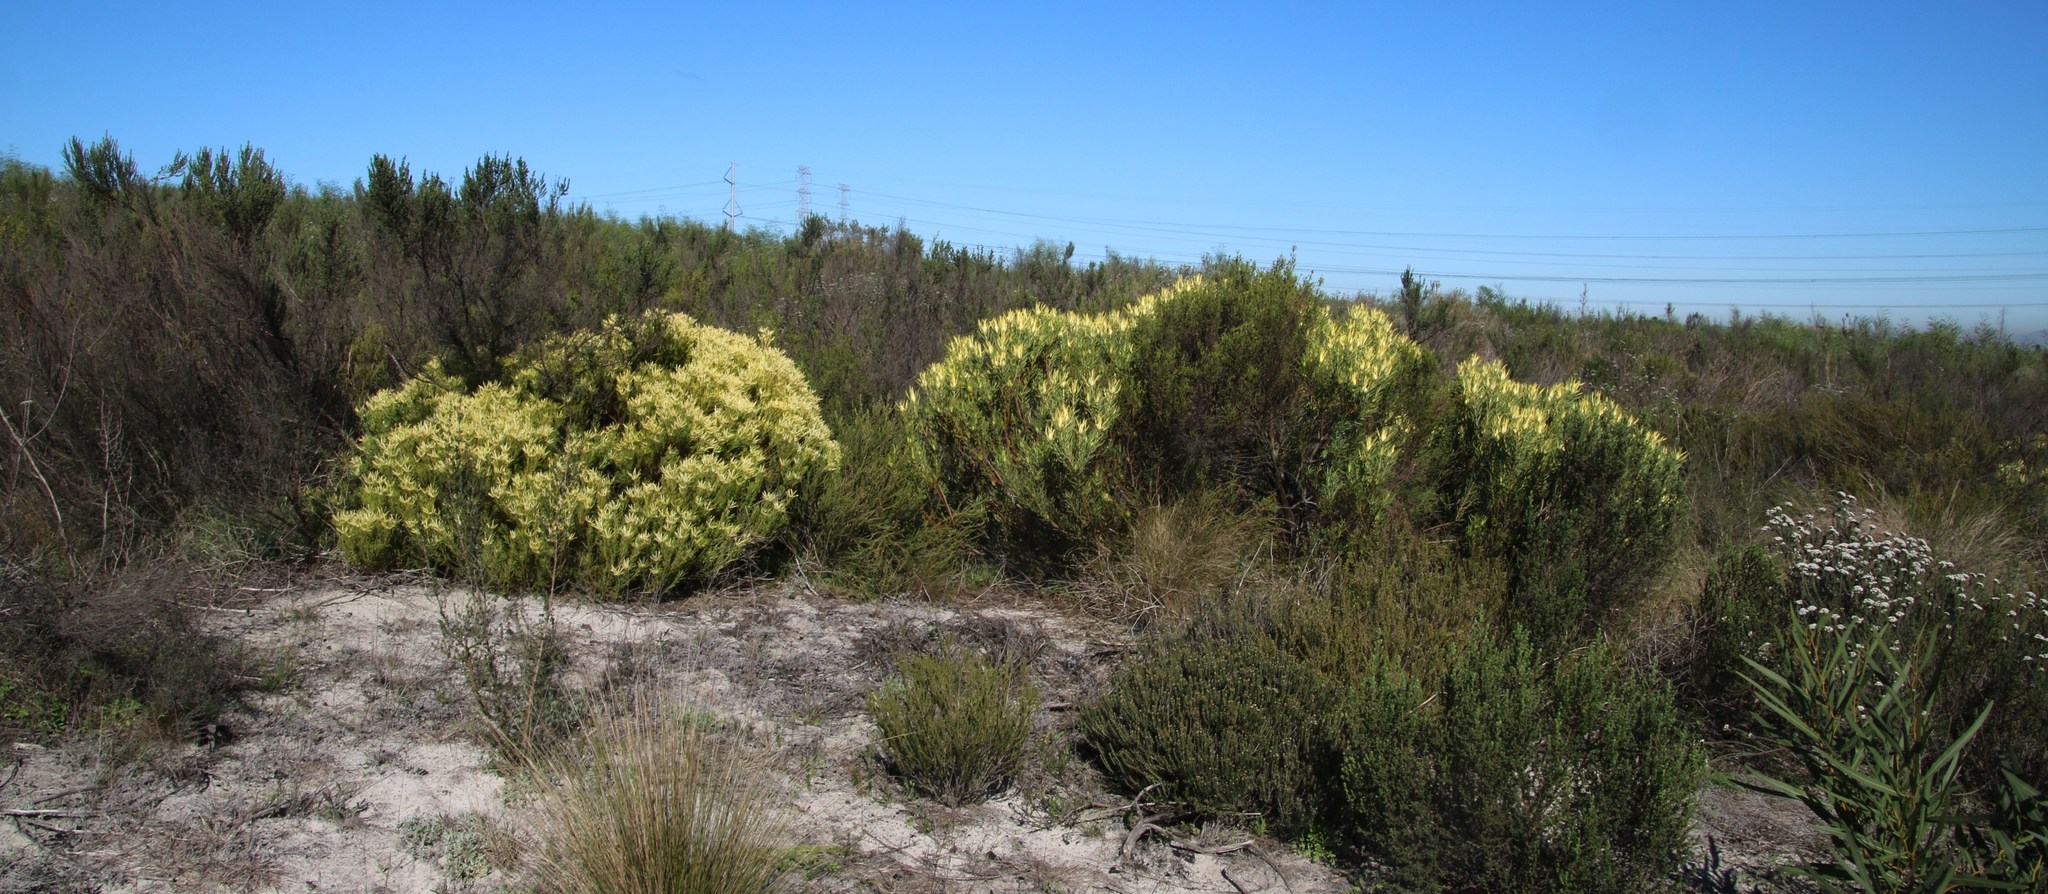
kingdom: Plantae
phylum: Tracheophyta
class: Magnoliopsida
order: Proteales
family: Proteaceae
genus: Leucadendron
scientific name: Leucadendron salignum
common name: Common sunshine conebush
